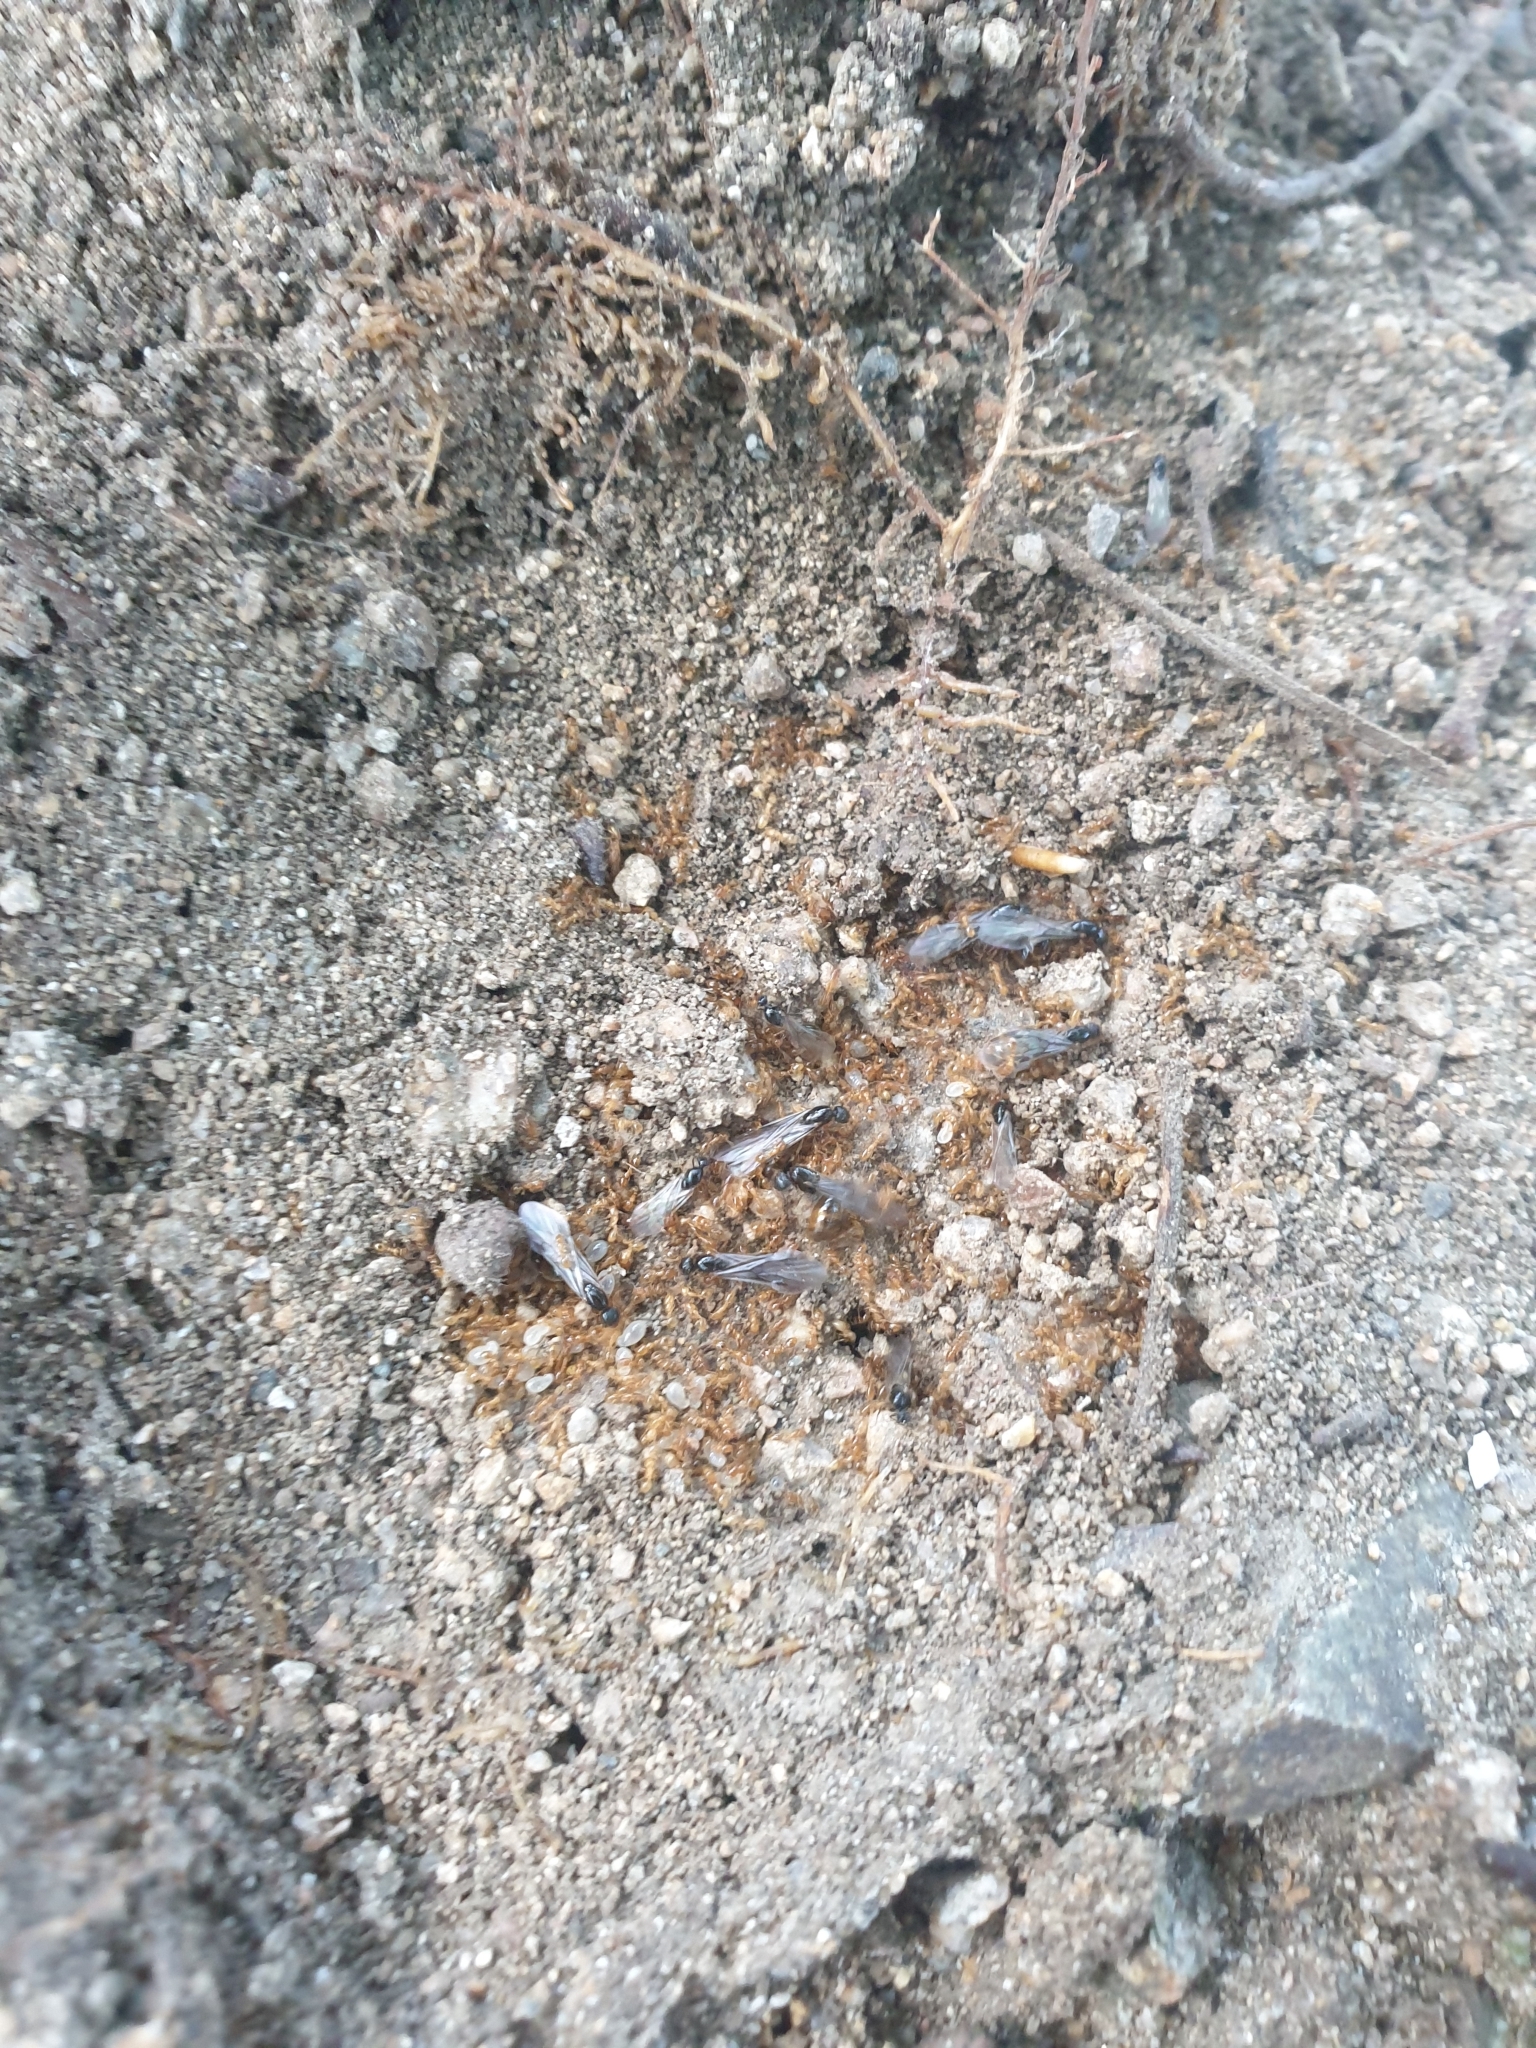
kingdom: Animalia
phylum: Arthropoda
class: Insecta
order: Hymenoptera
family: Formicidae
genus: Solenopsis
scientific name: Solenopsis japonica
